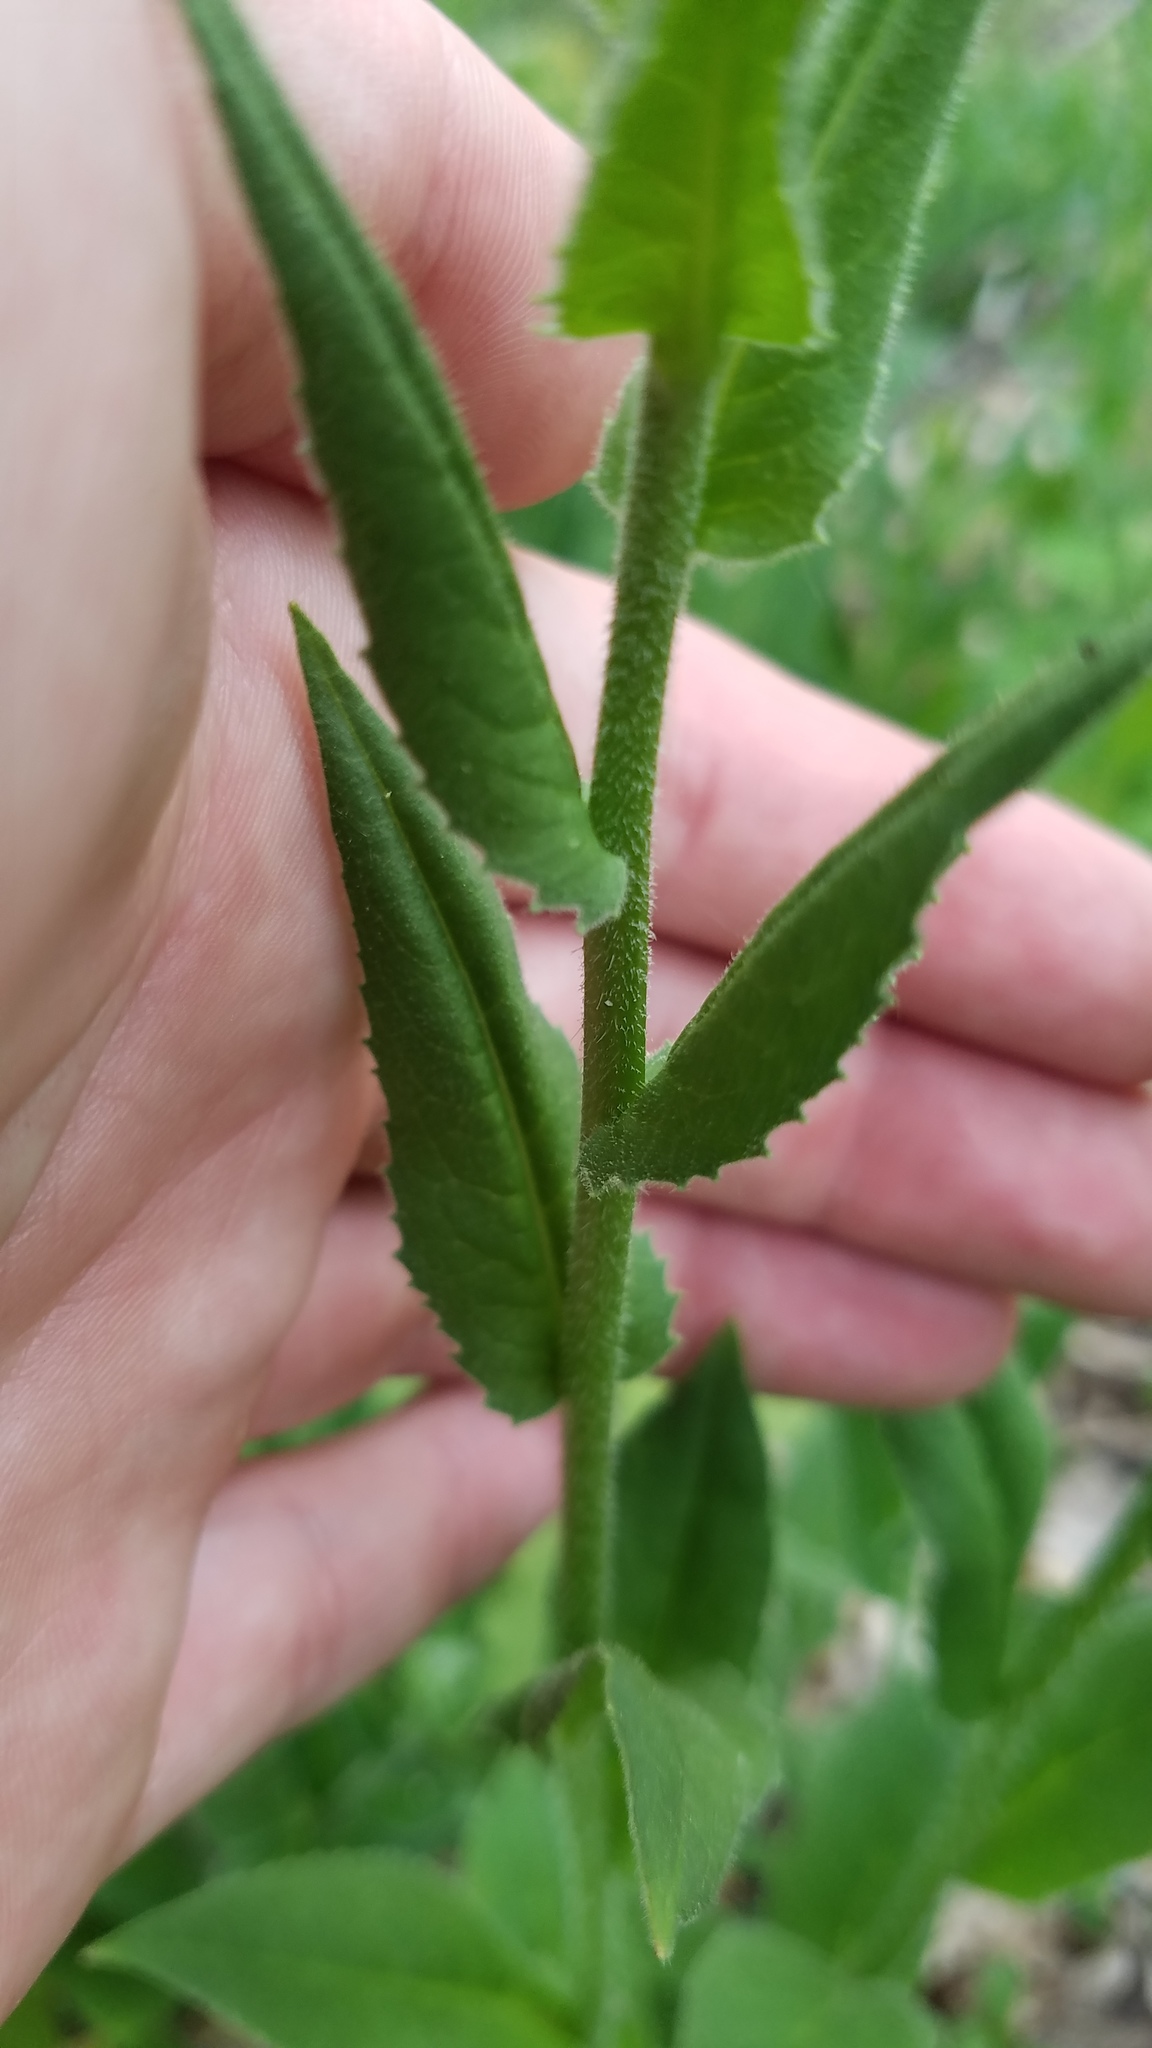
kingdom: Plantae
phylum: Tracheophyta
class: Magnoliopsida
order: Brassicales
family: Brassicaceae
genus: Hesperis
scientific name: Hesperis matronalis
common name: Dame's-violet
